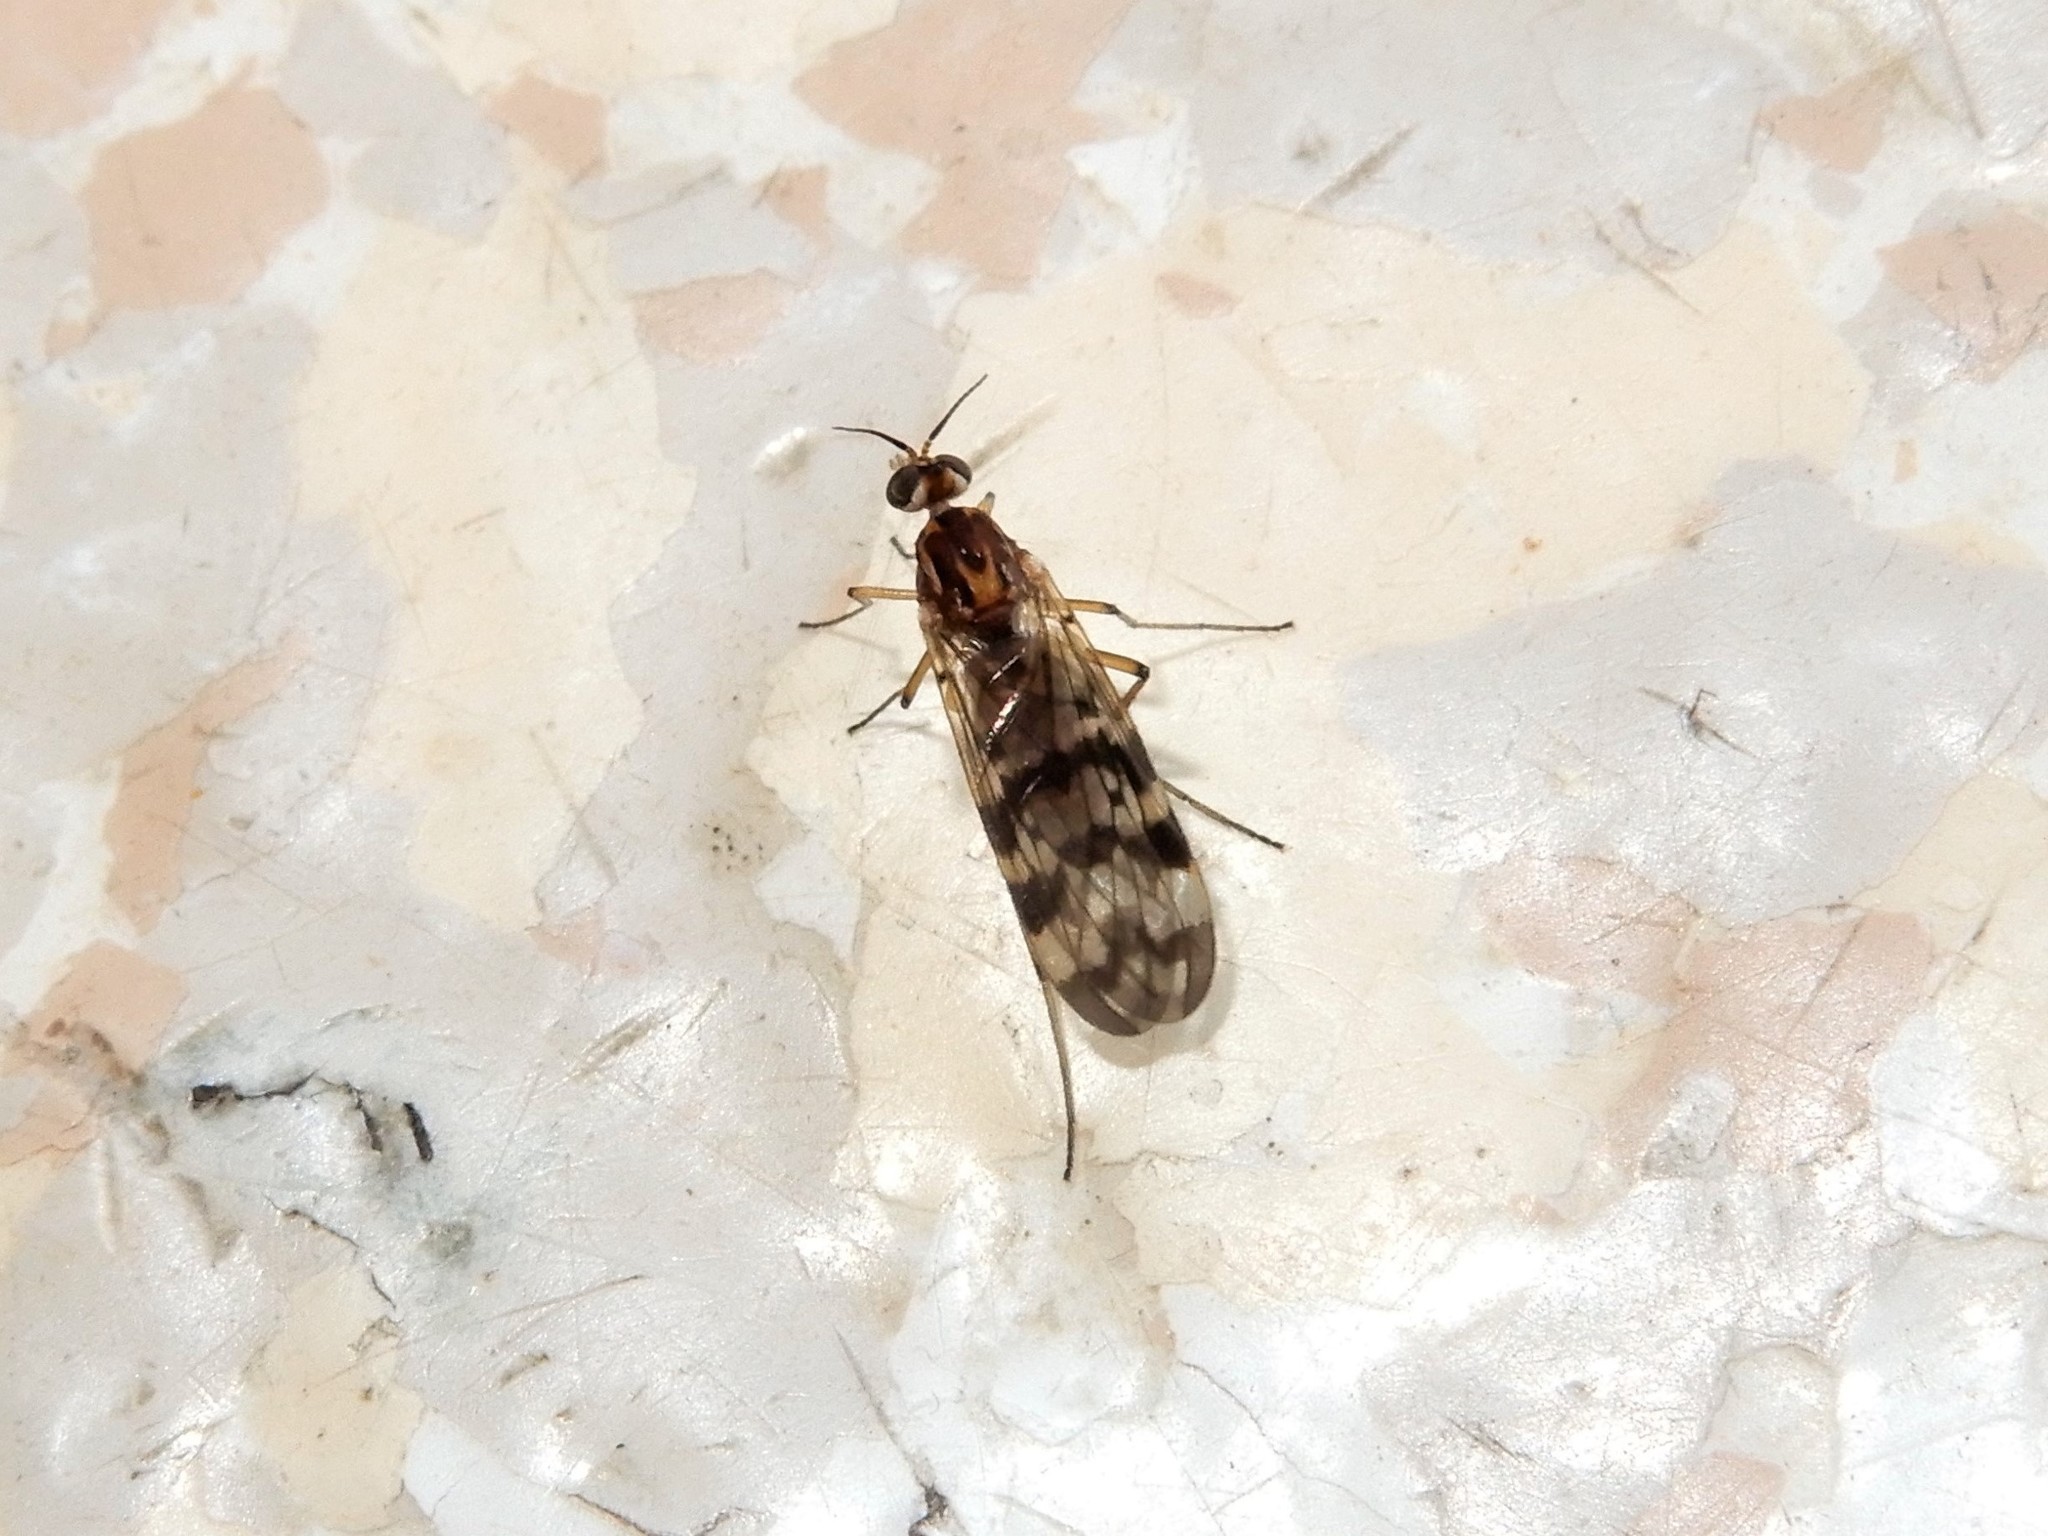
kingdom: Animalia
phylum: Arthropoda
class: Insecta
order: Diptera
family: Anisopodidae
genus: Sylvicola
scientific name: Sylvicola dubius
